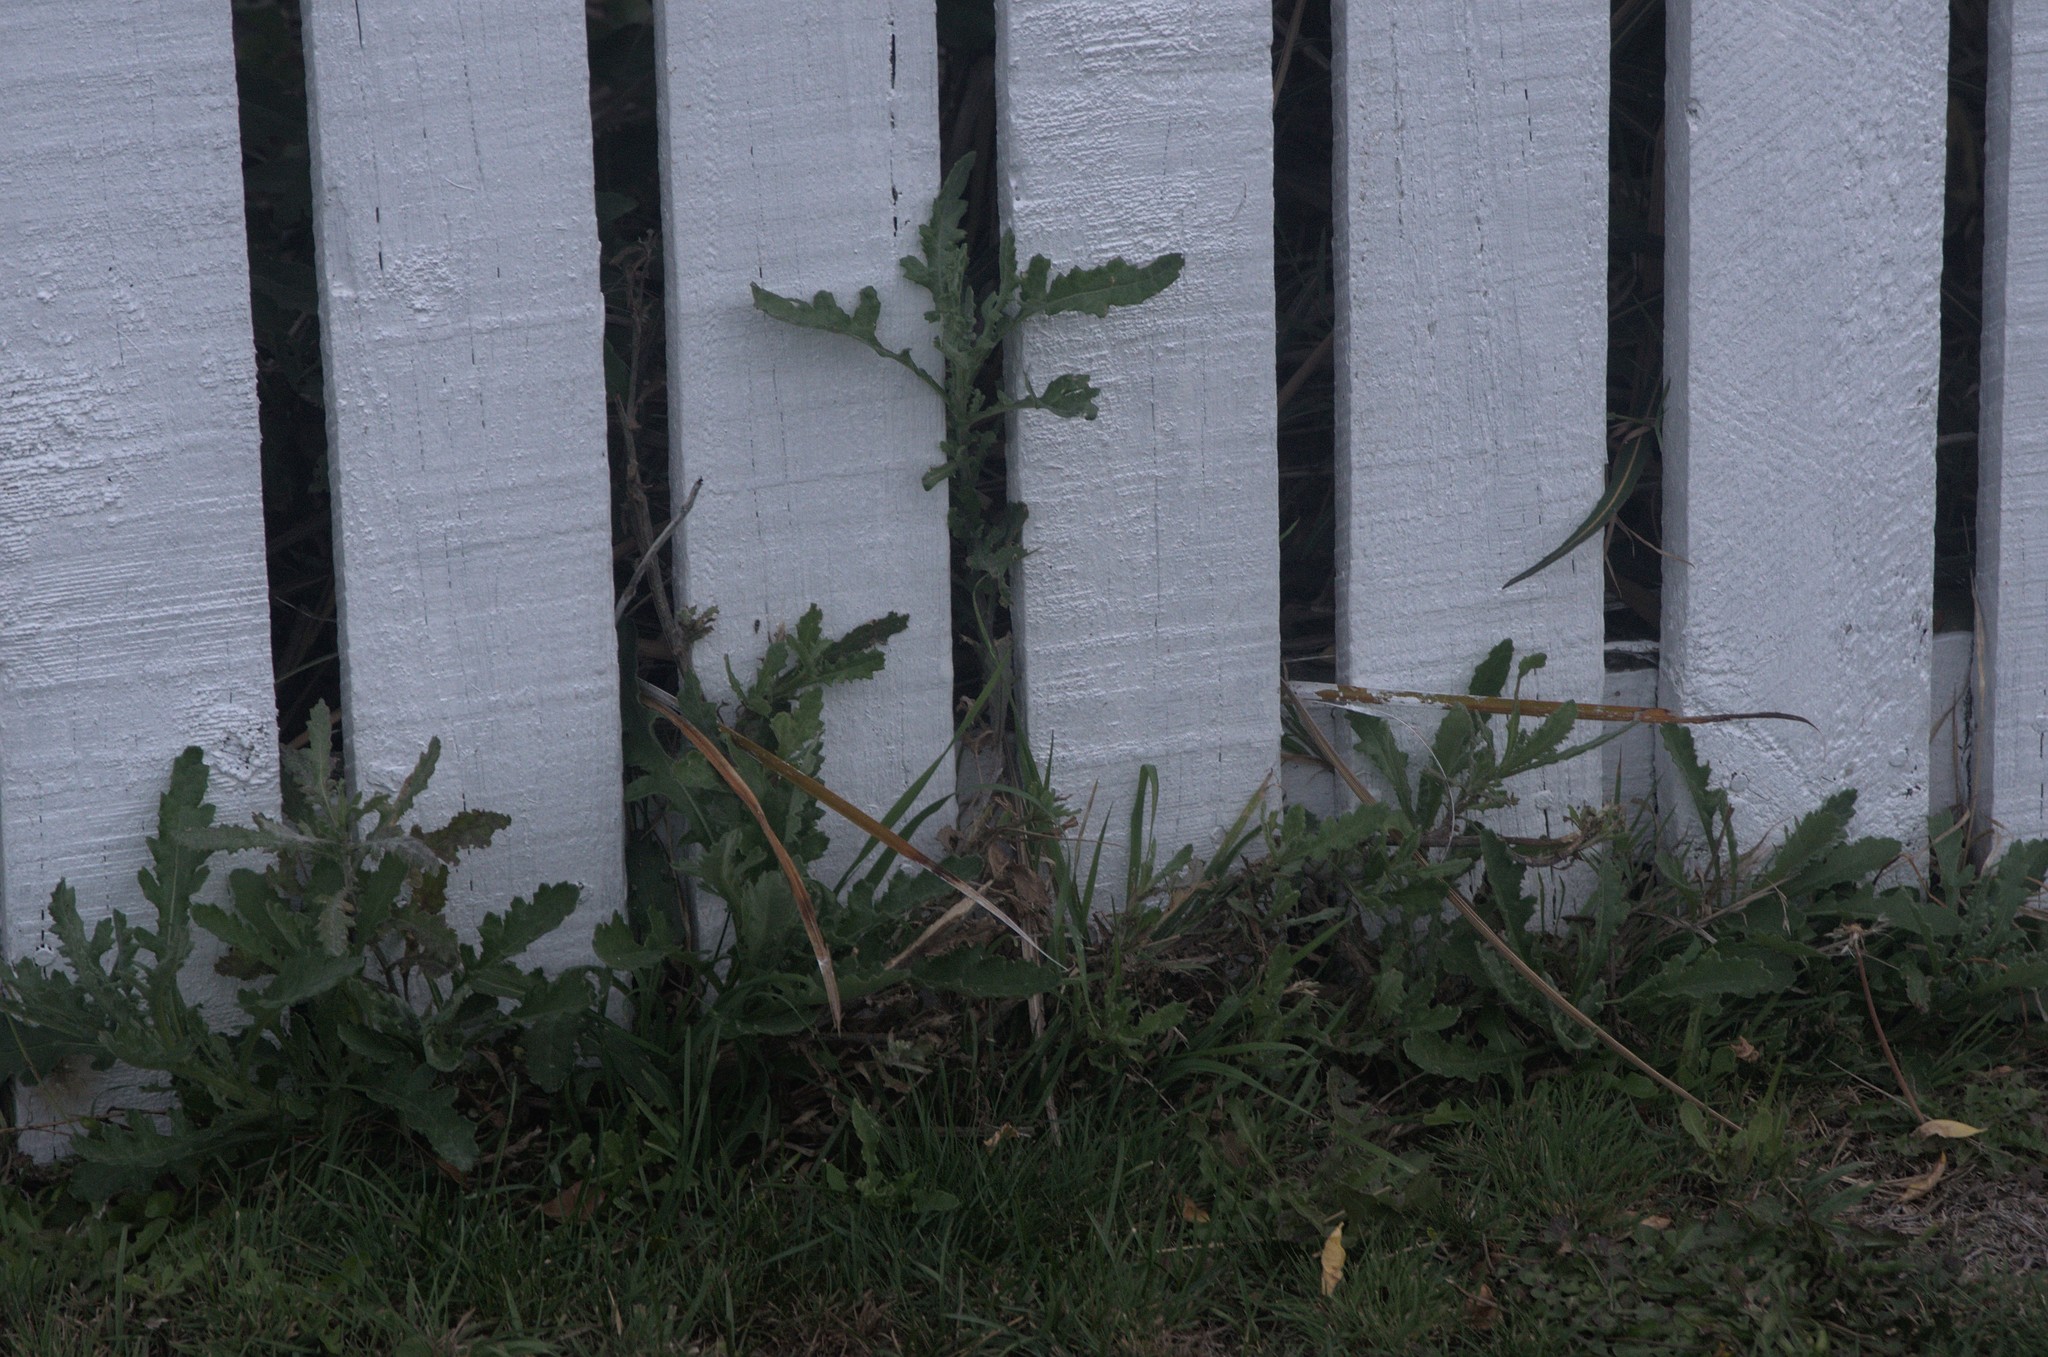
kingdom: Plantae
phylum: Tracheophyta
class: Magnoliopsida
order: Asterales
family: Asteraceae
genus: Senecio
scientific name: Senecio glomeratus
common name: Cutleaf burnweed
